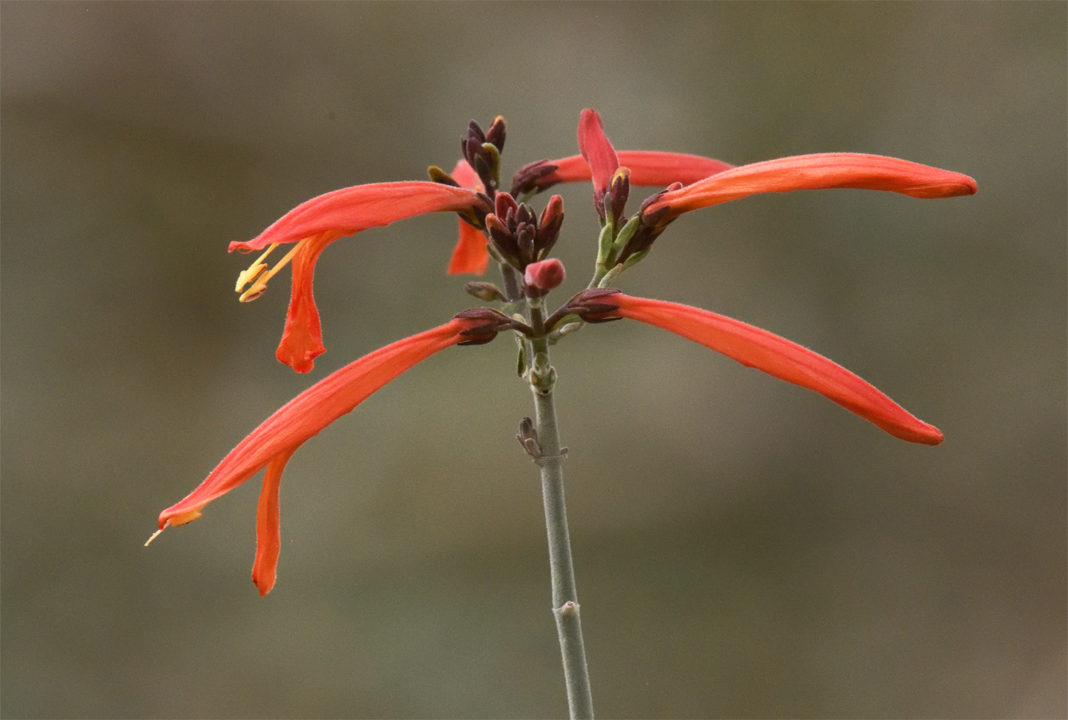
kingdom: Plantae
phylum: Tracheophyta
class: Magnoliopsida
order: Lamiales
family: Acanthaceae
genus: Justicia
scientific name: Justicia californica
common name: Chuparosa-honeysuckle
